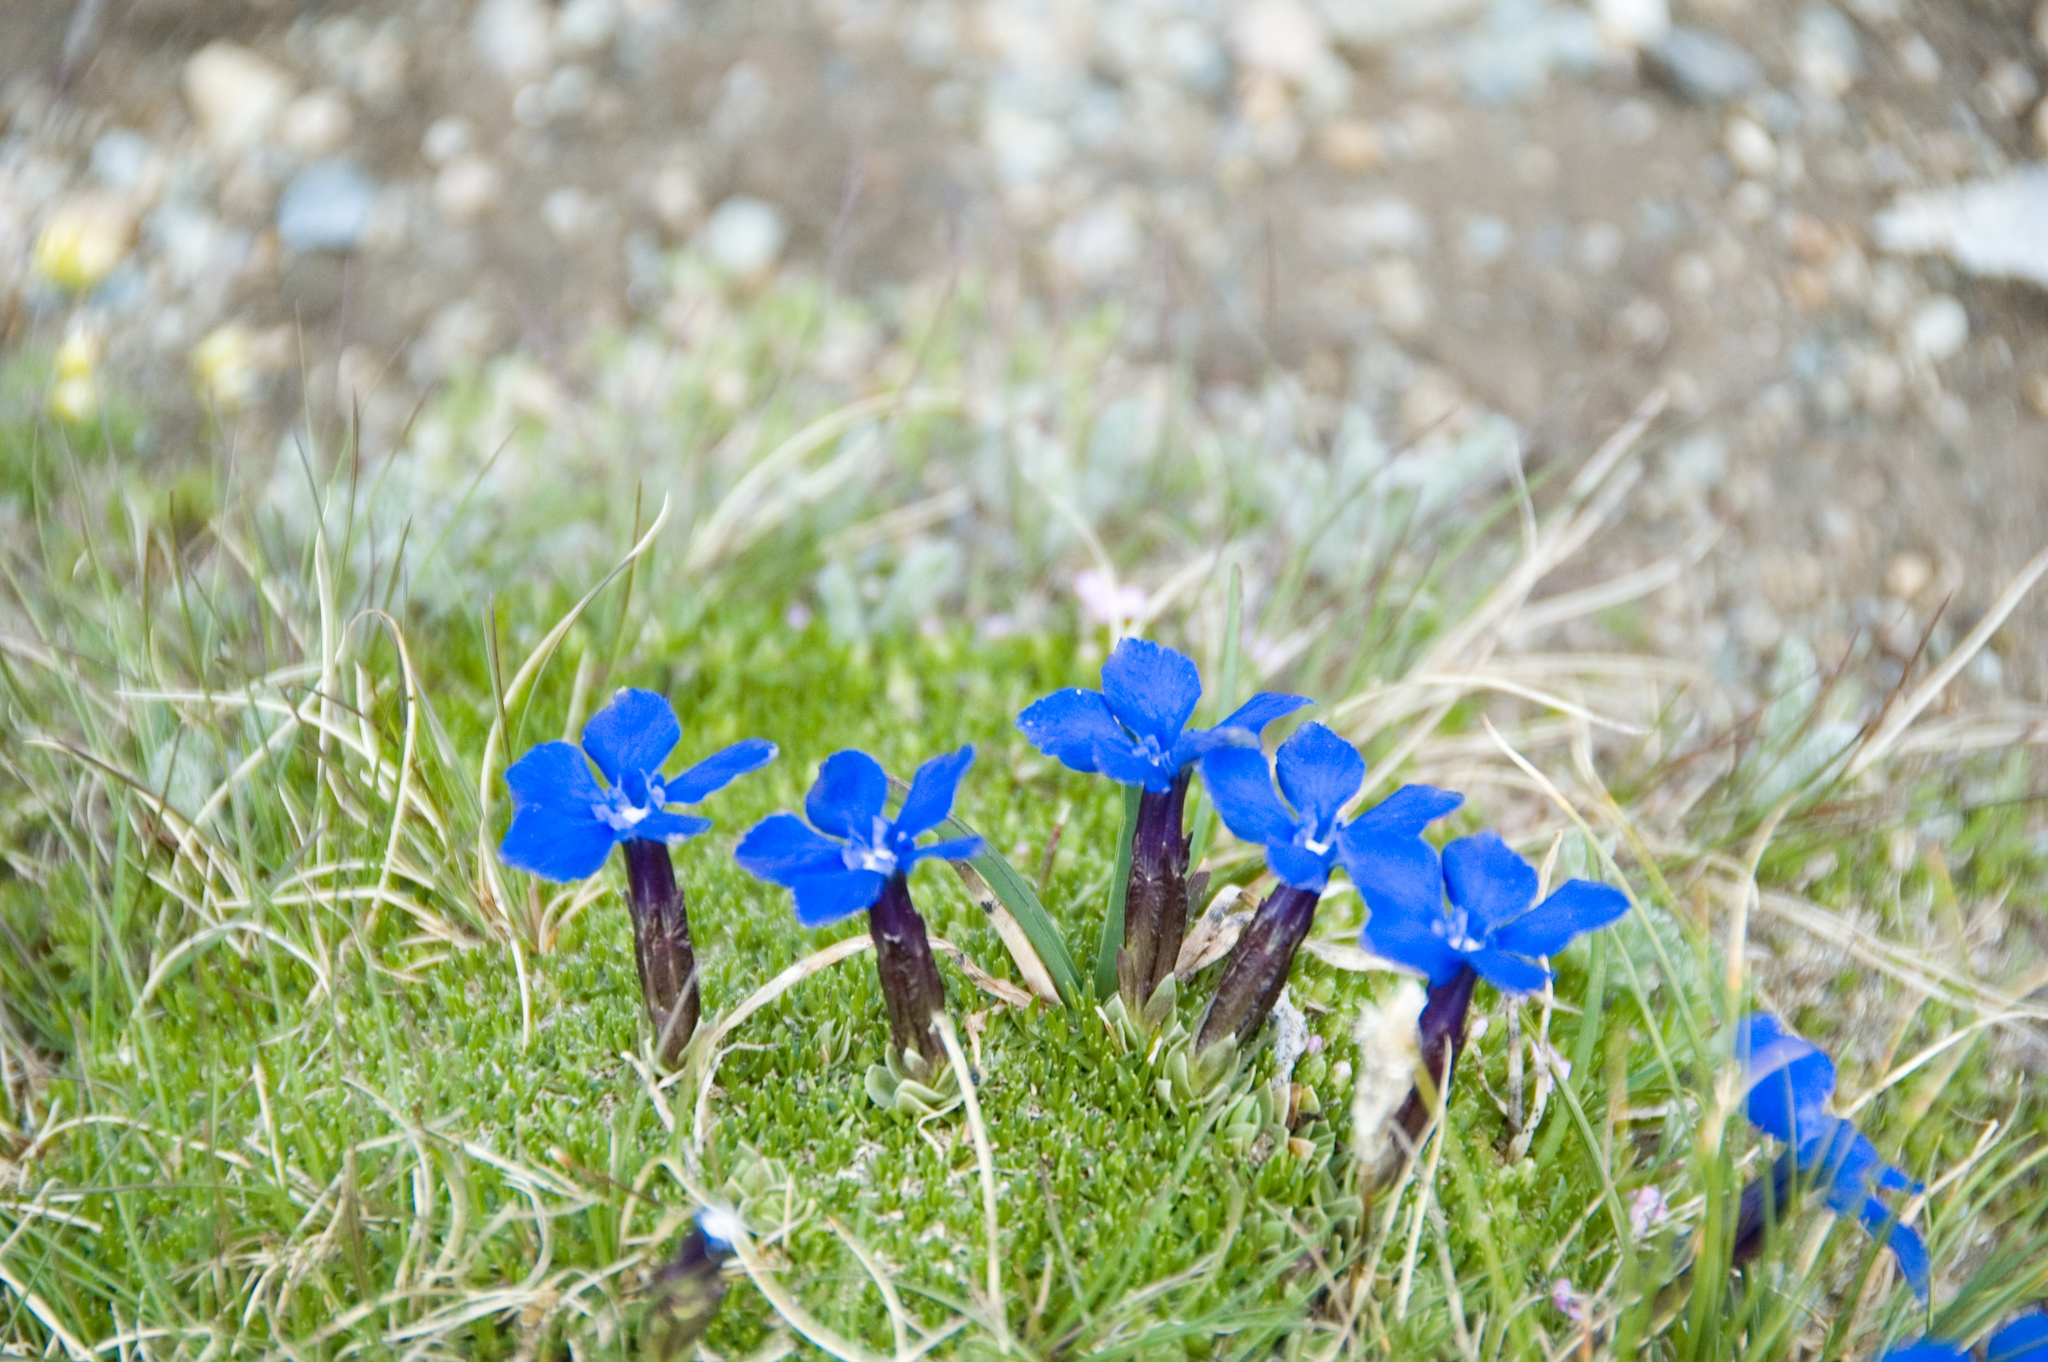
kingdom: Plantae
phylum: Tracheophyta
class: Magnoliopsida
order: Gentianales
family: Gentianaceae
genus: Gentiana
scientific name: Gentiana terglouensis
